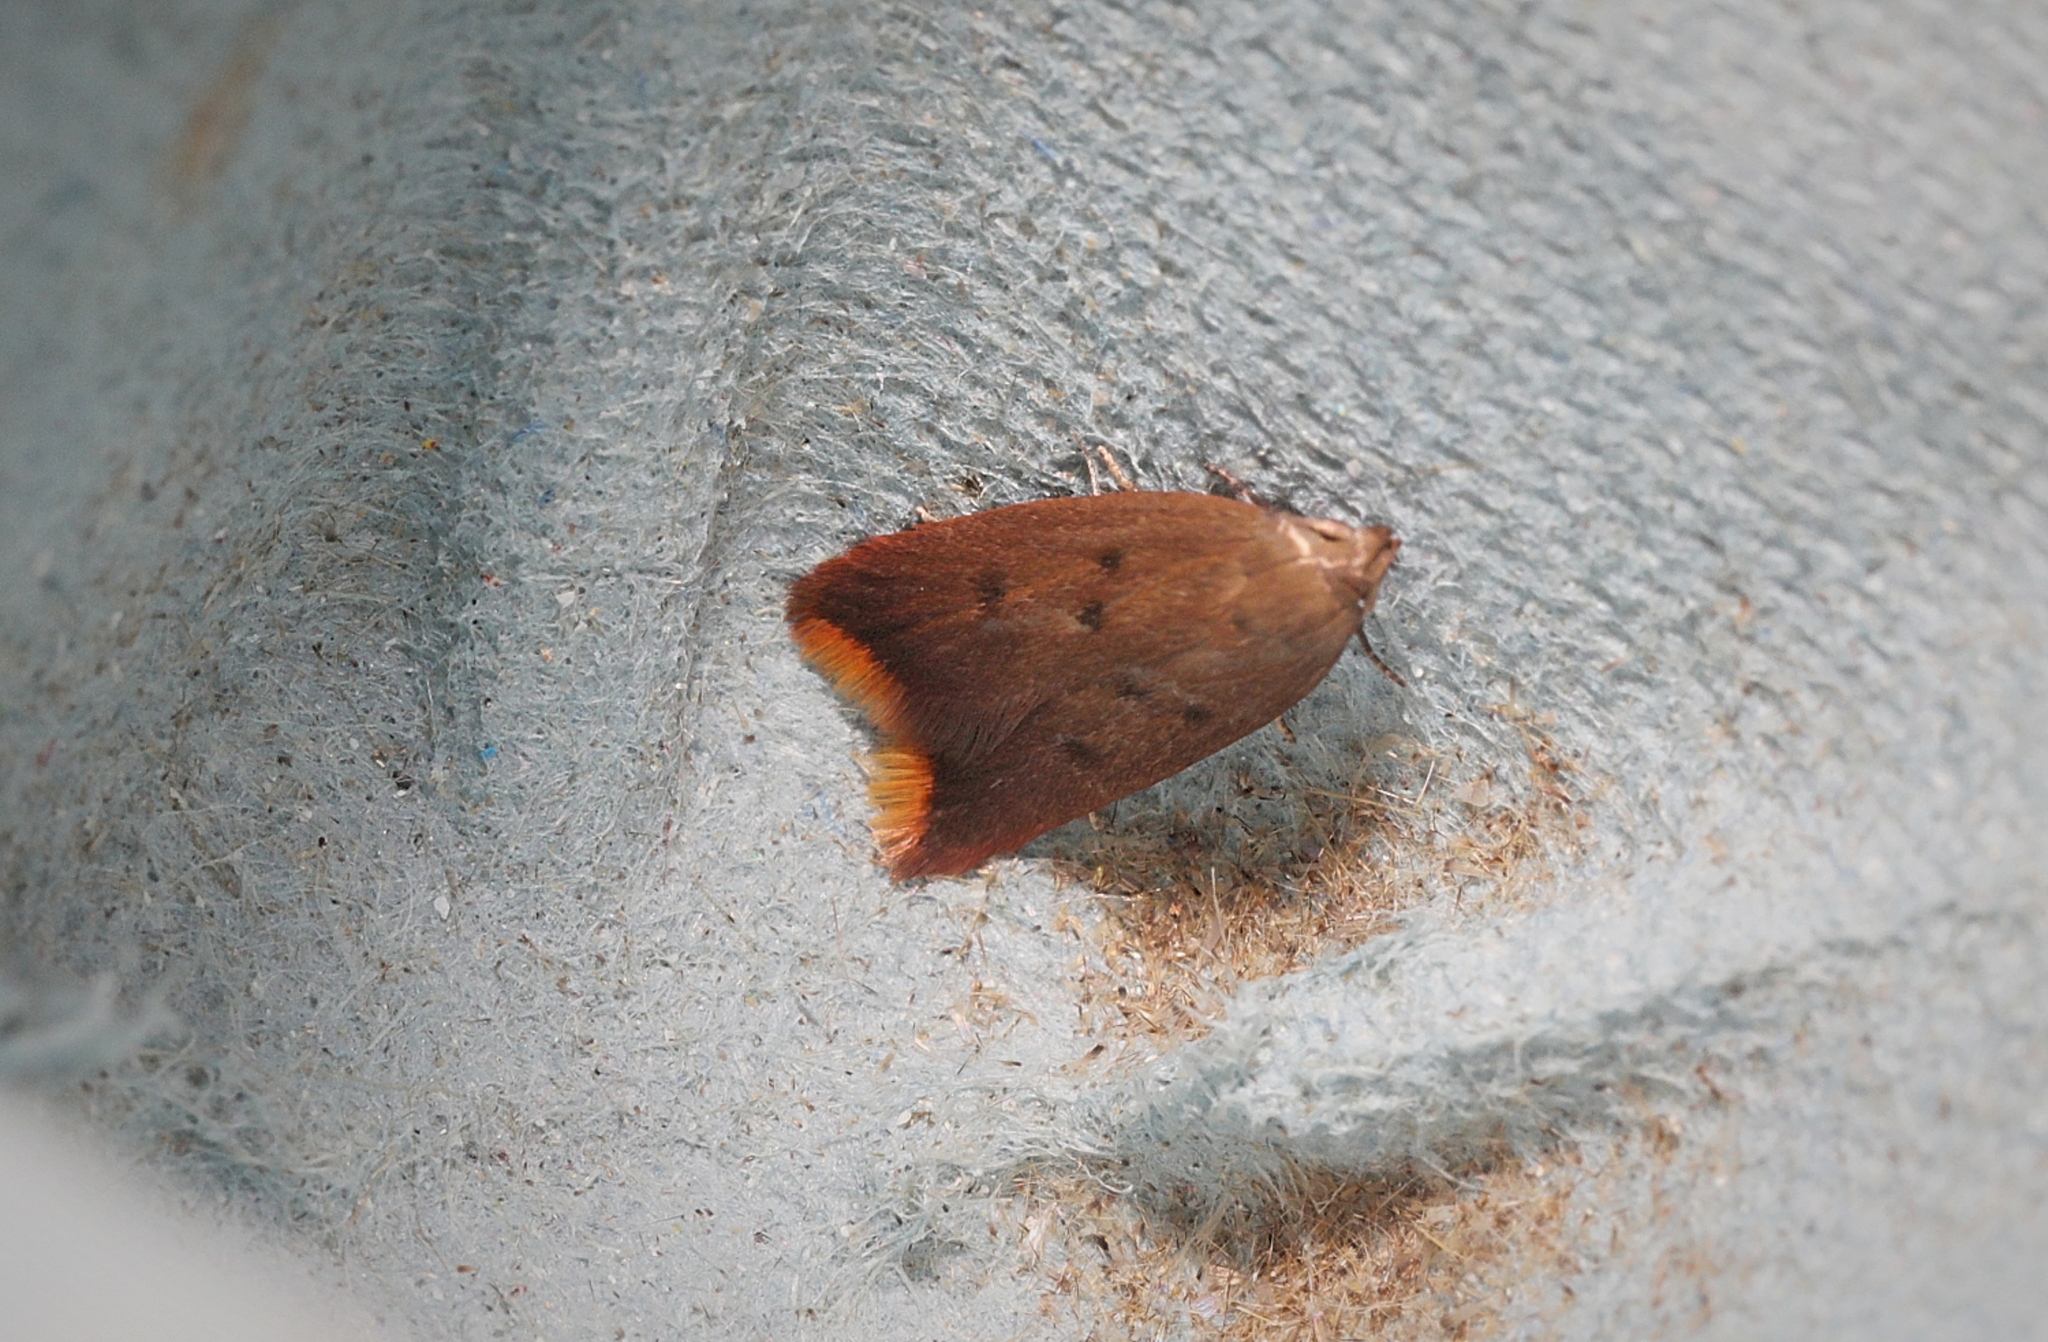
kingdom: Animalia
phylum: Arthropoda
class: Insecta
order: Lepidoptera
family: Oecophoridae
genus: Tachystola
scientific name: Tachystola acroxantha
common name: Ruddy streak
